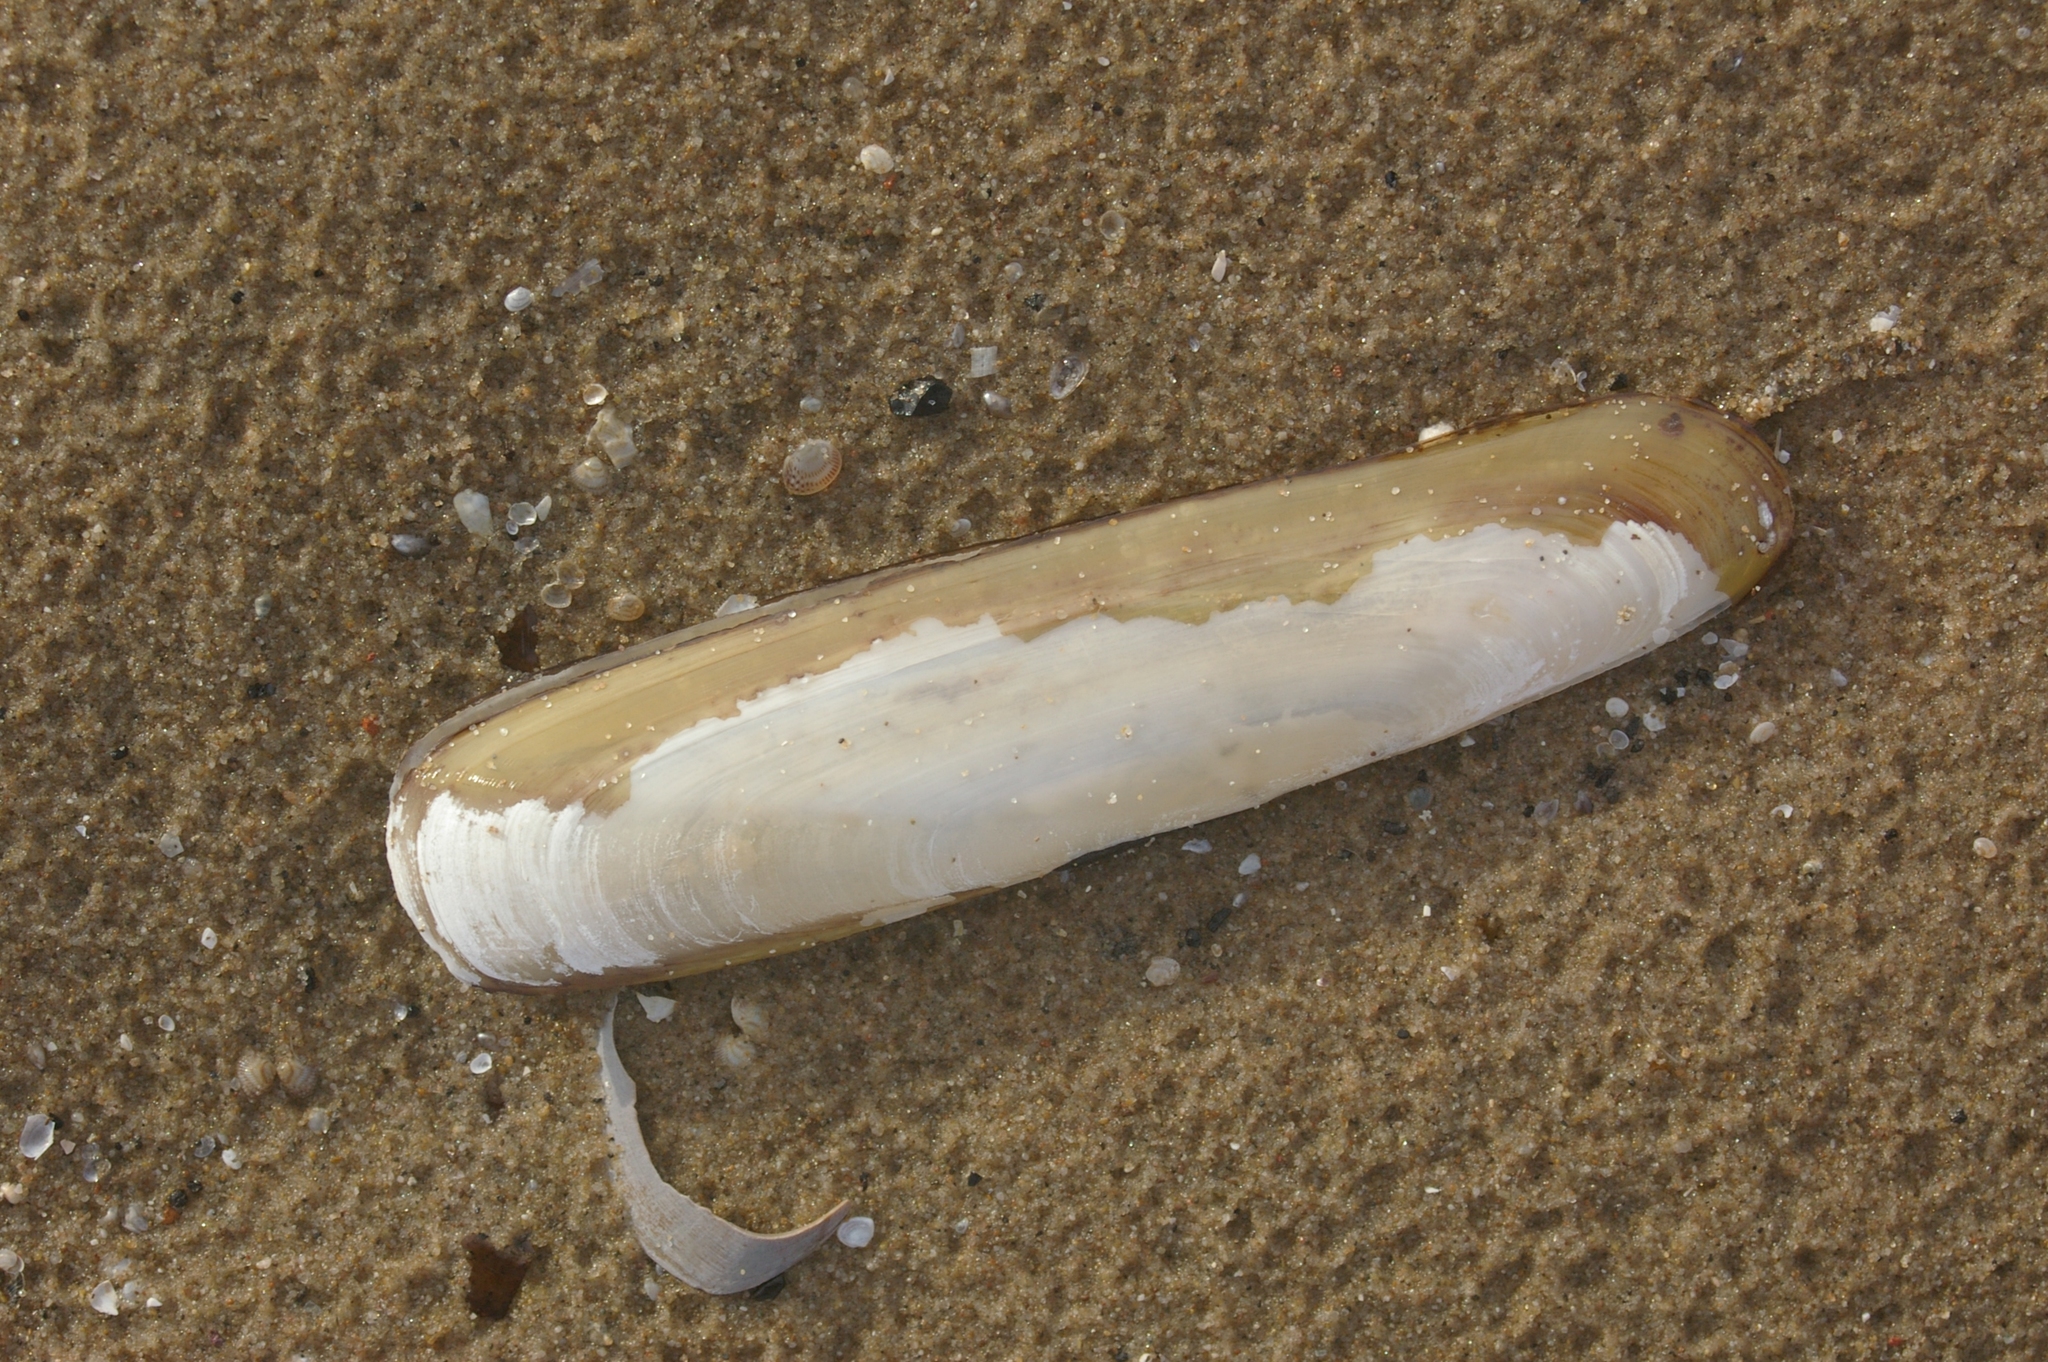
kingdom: Animalia
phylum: Mollusca
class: Bivalvia
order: Adapedonta
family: Pharidae
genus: Pharus
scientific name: Pharus legumen
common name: Bean razor clam
